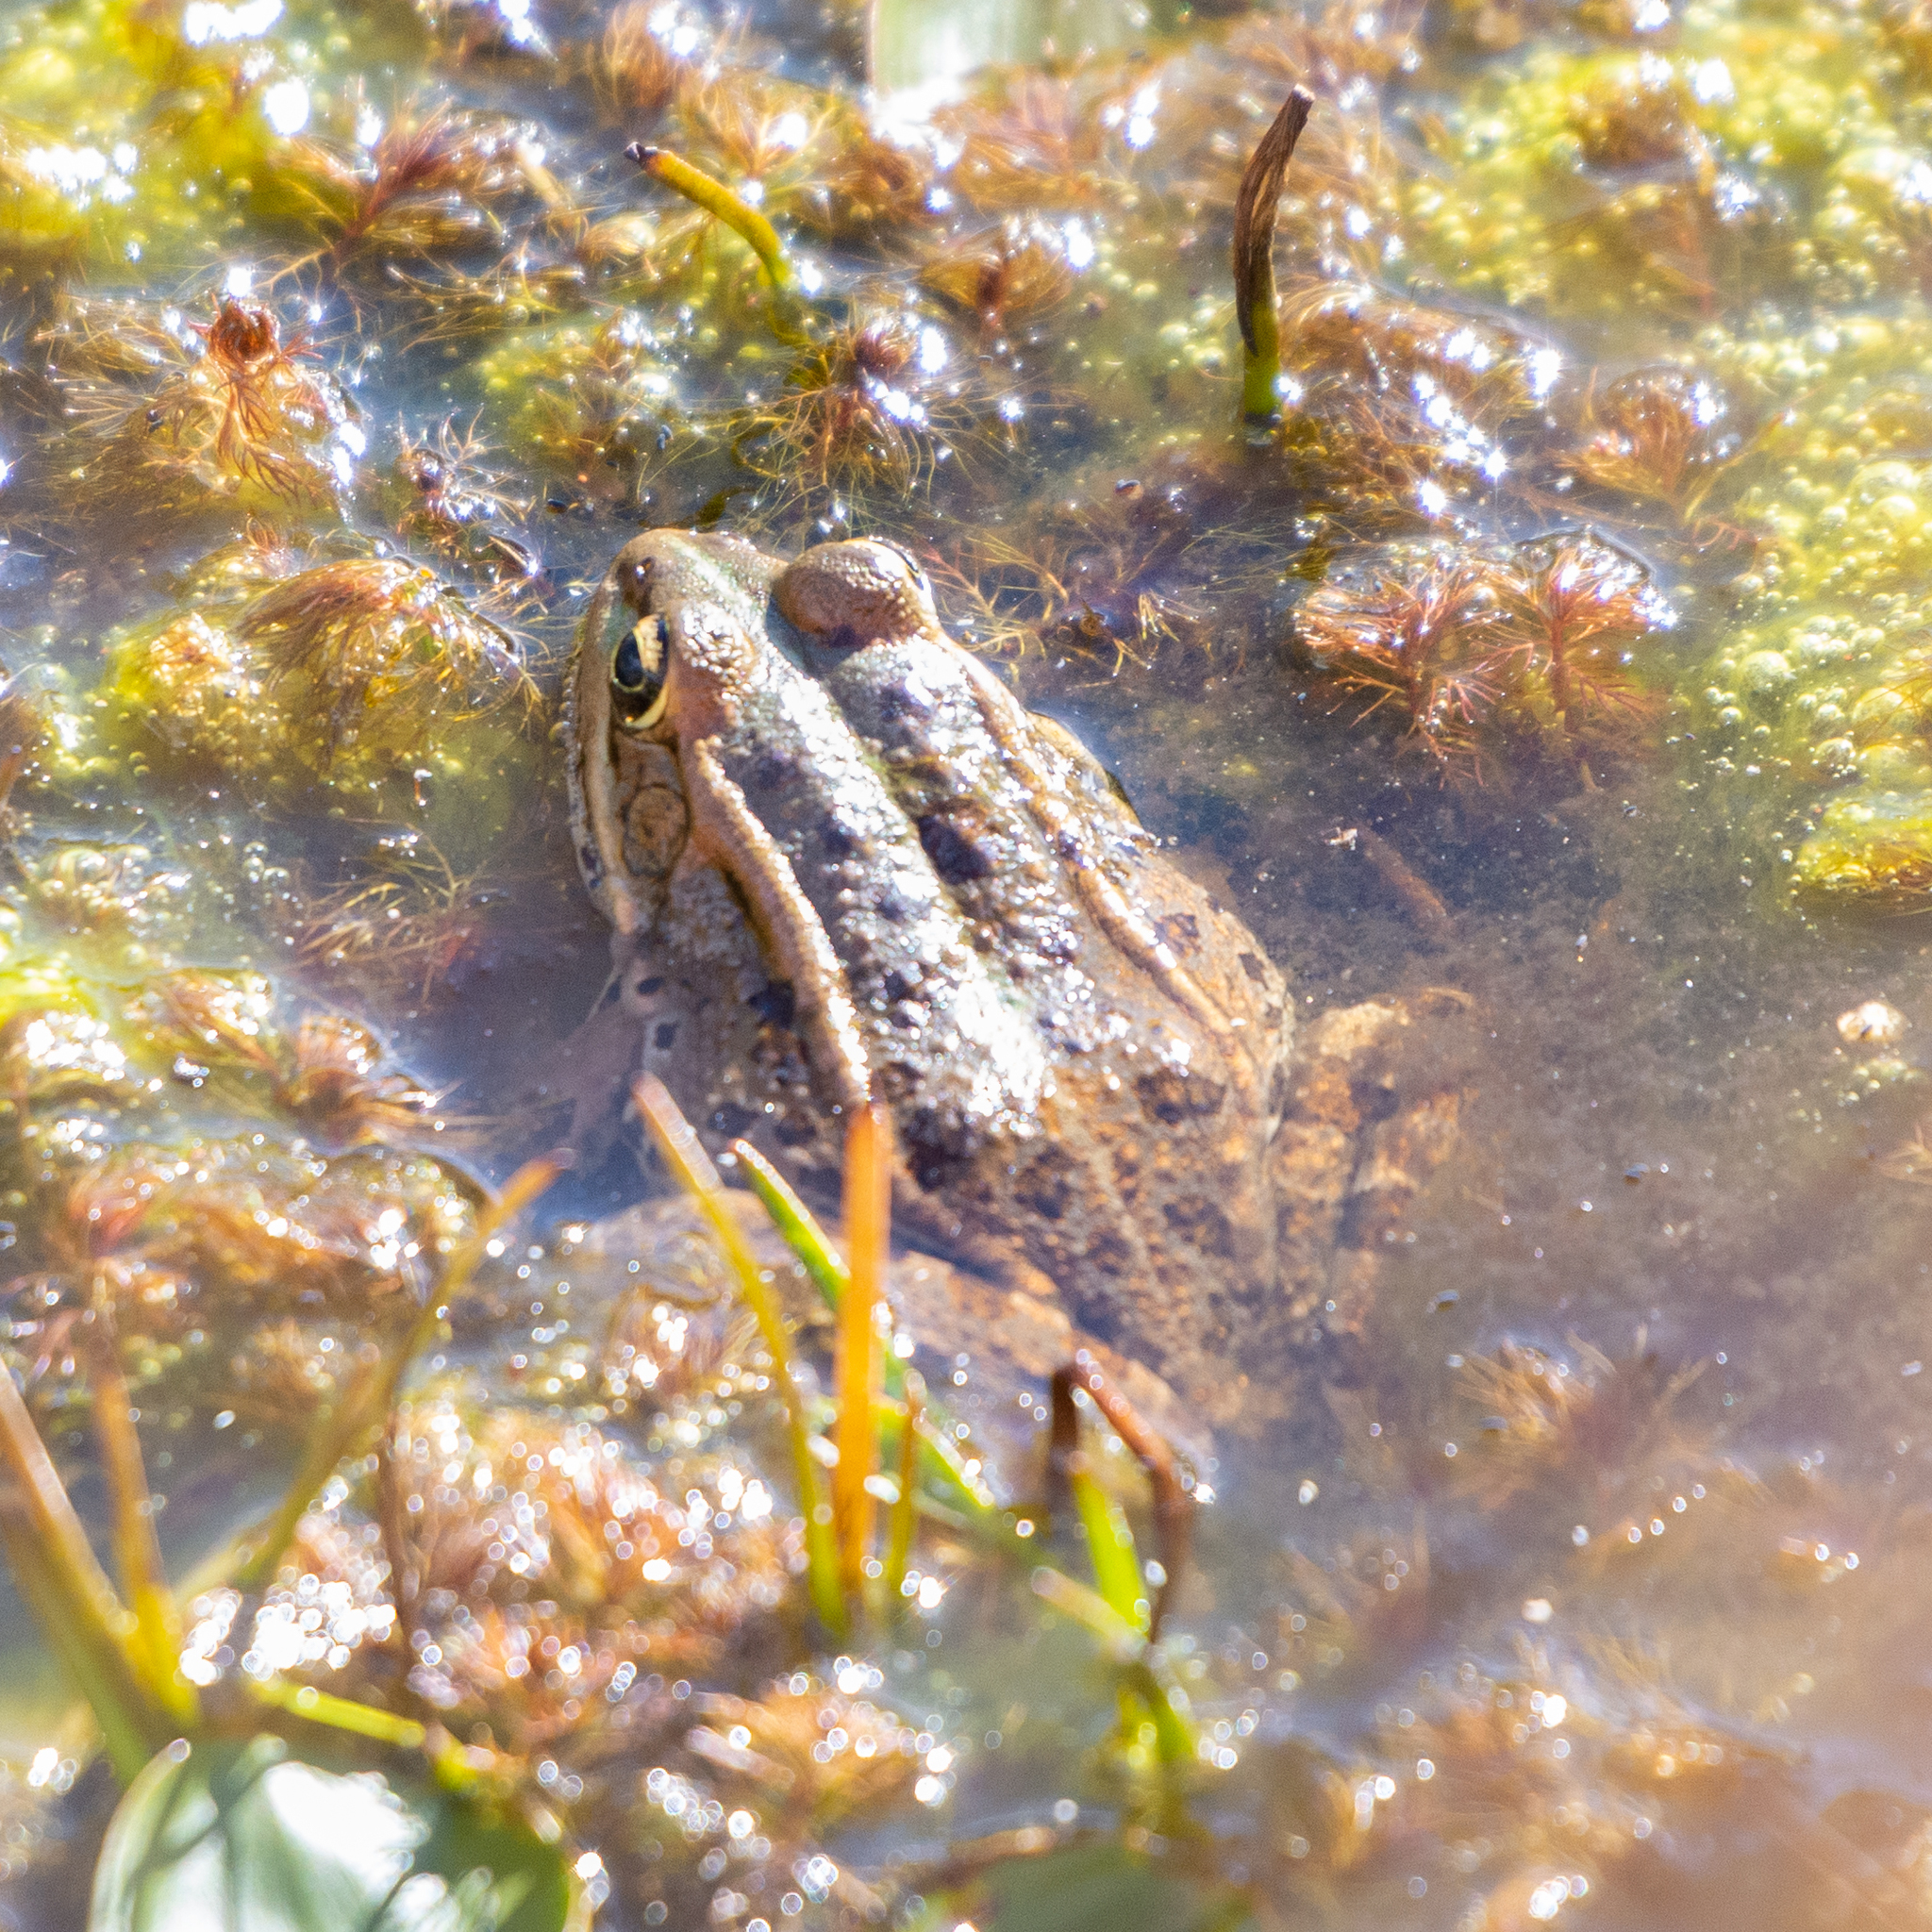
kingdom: Animalia
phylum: Chordata
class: Amphibia
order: Anura
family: Ranidae
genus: Pelophylax
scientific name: Pelophylax perezi
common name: Perez's frog
